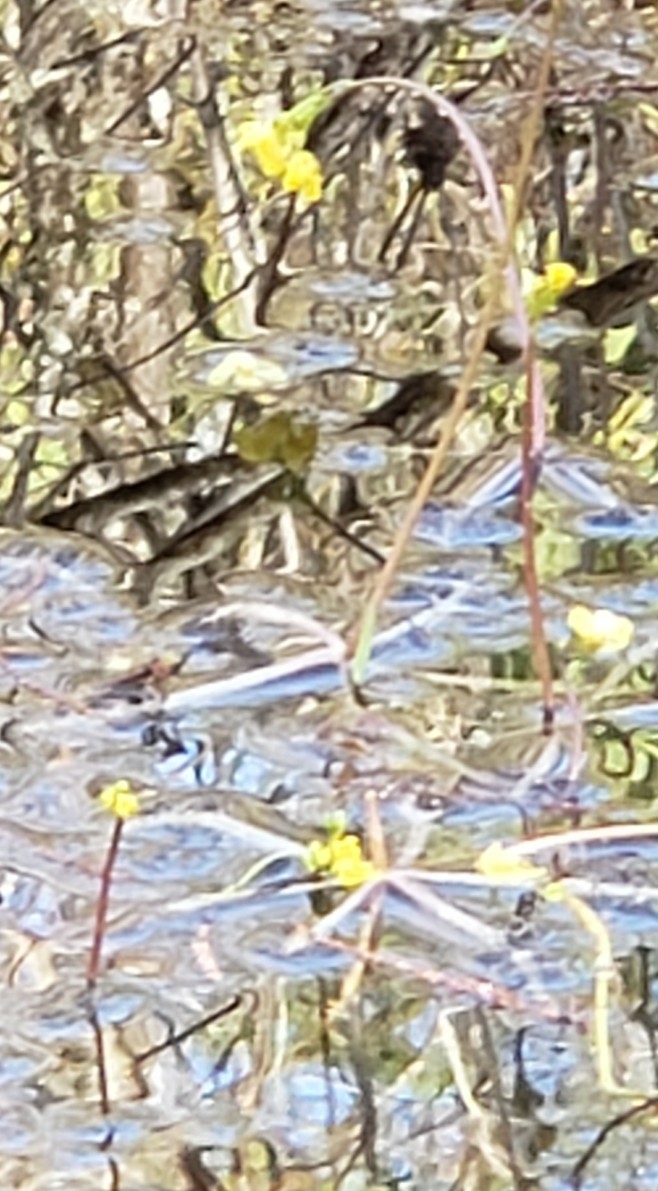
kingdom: Plantae
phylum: Tracheophyta
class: Magnoliopsida
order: Lamiales
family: Lentibulariaceae
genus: Utricularia
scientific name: Utricularia inflata
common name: Floating bladderwort
